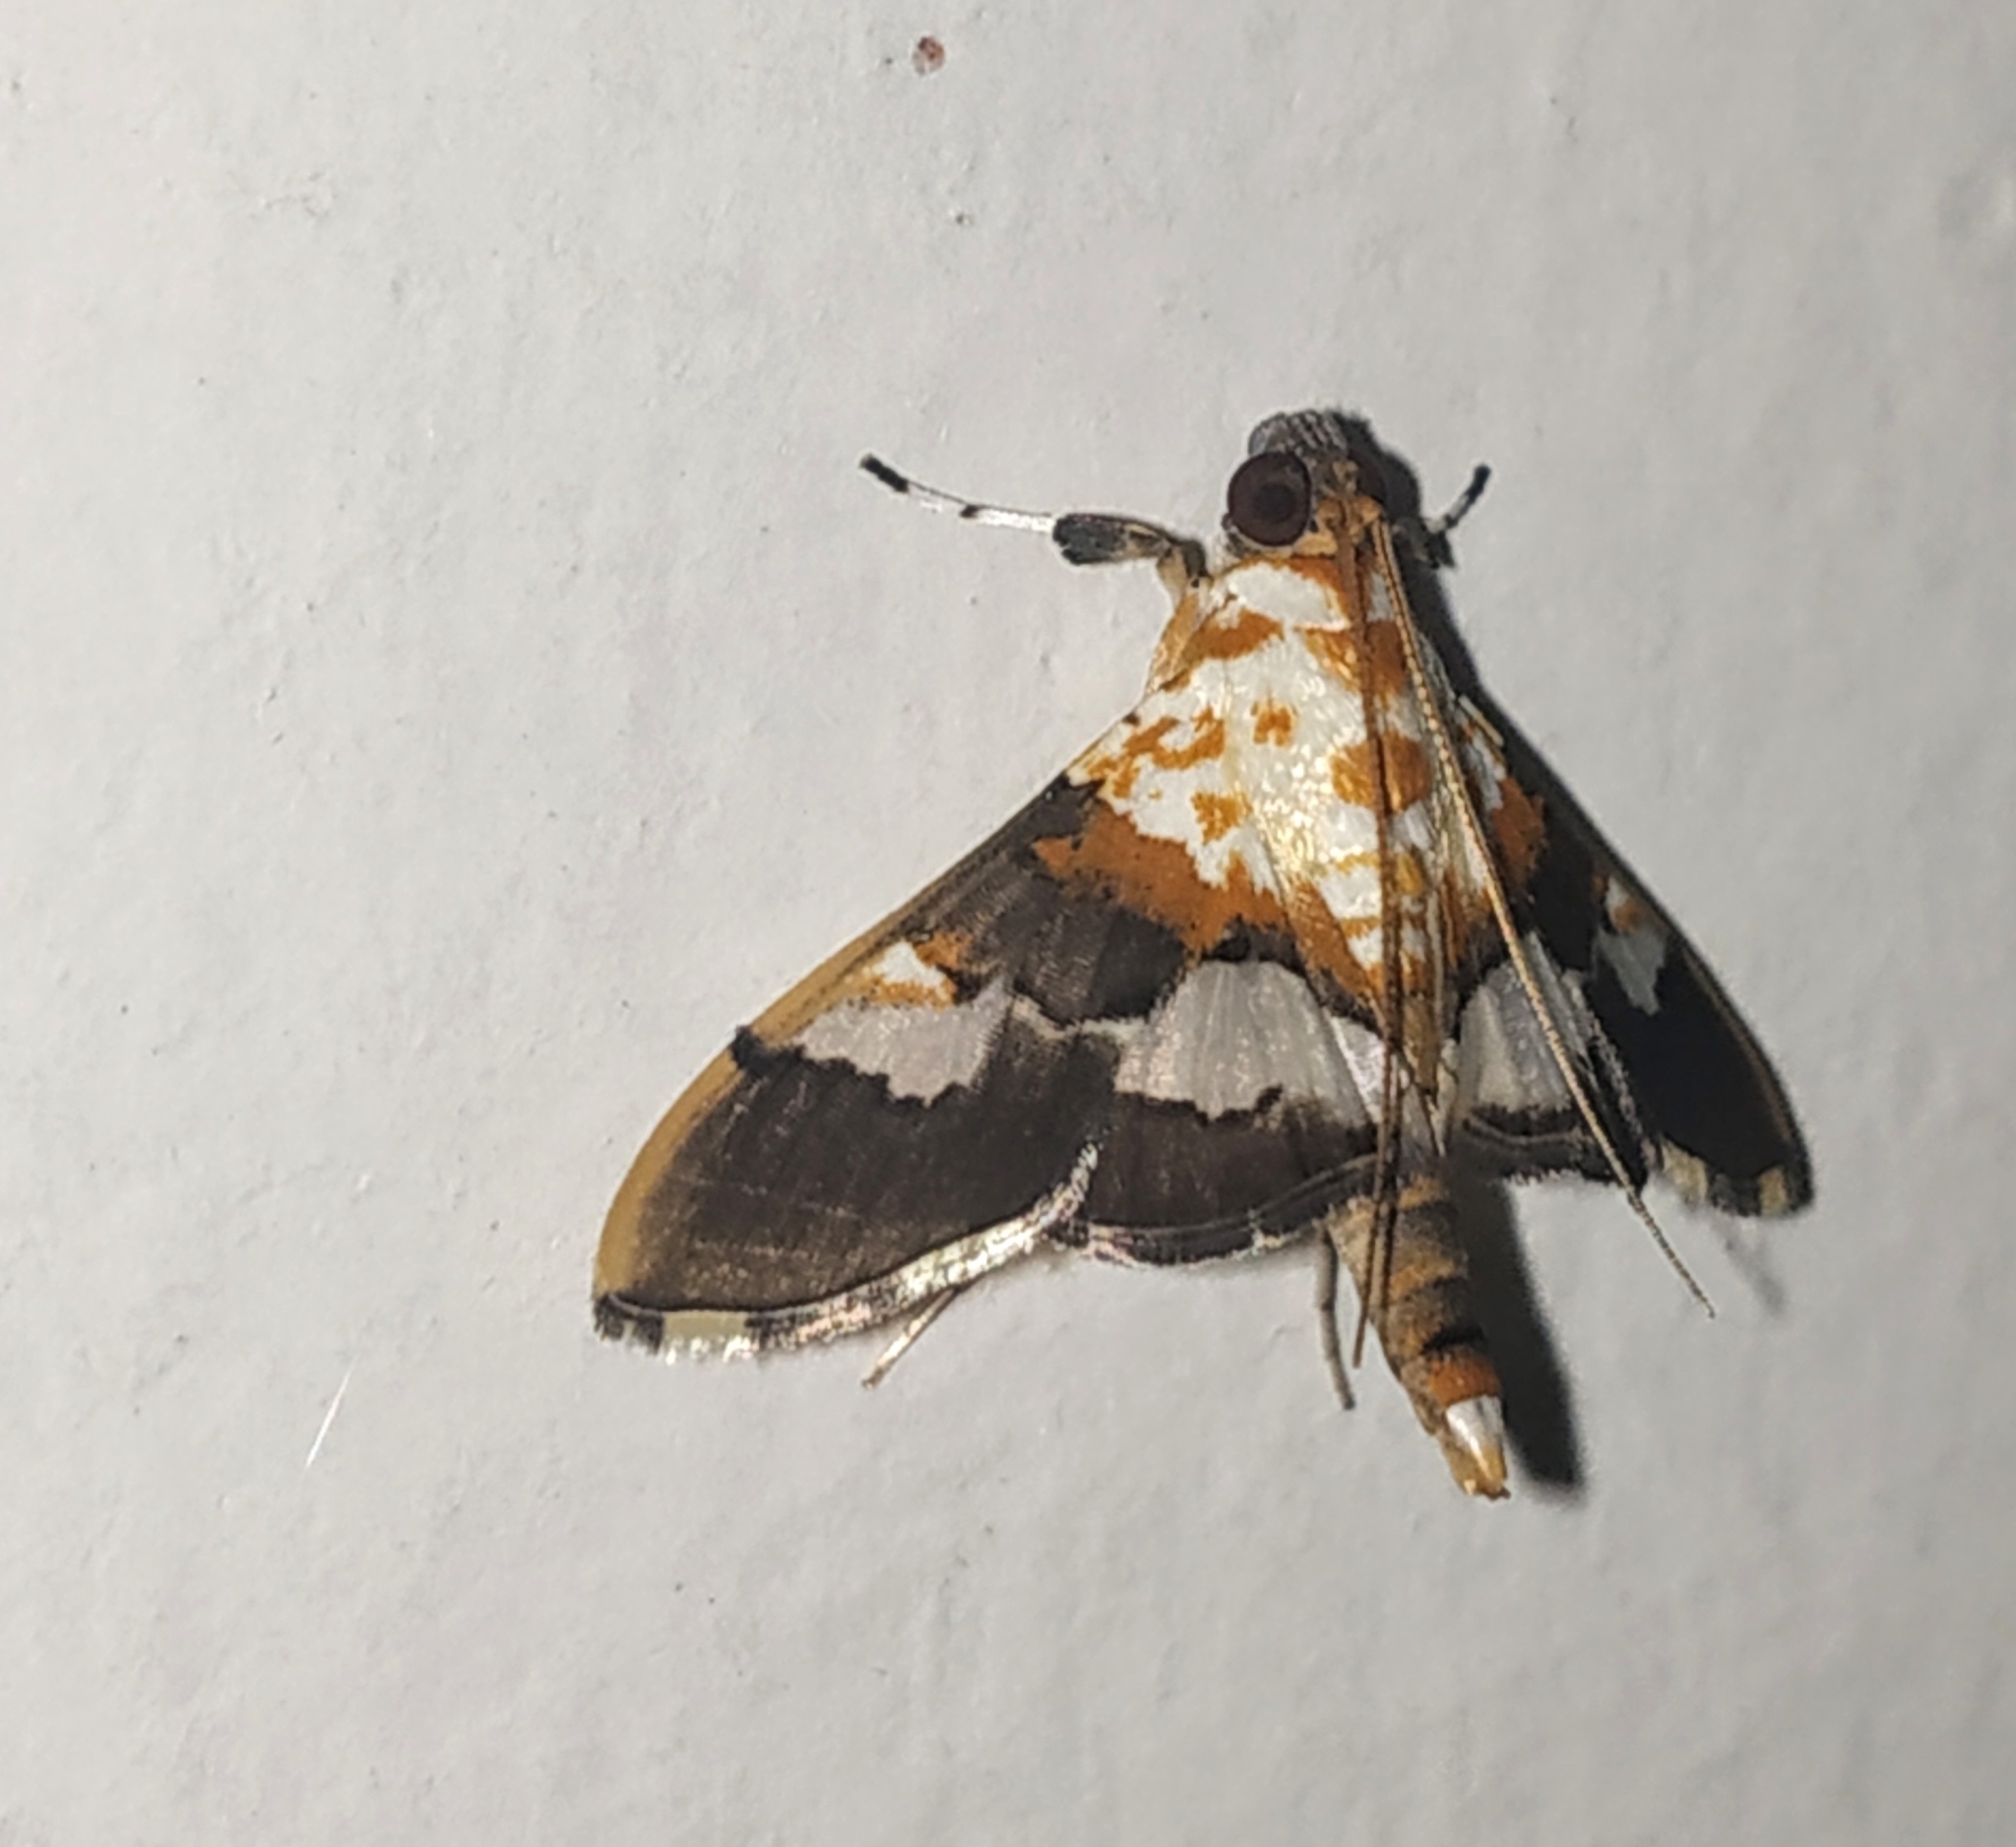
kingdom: Animalia
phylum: Arthropoda
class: Insecta
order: Lepidoptera
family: Crambidae
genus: Aetholix
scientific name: Aetholix flavibasalis
